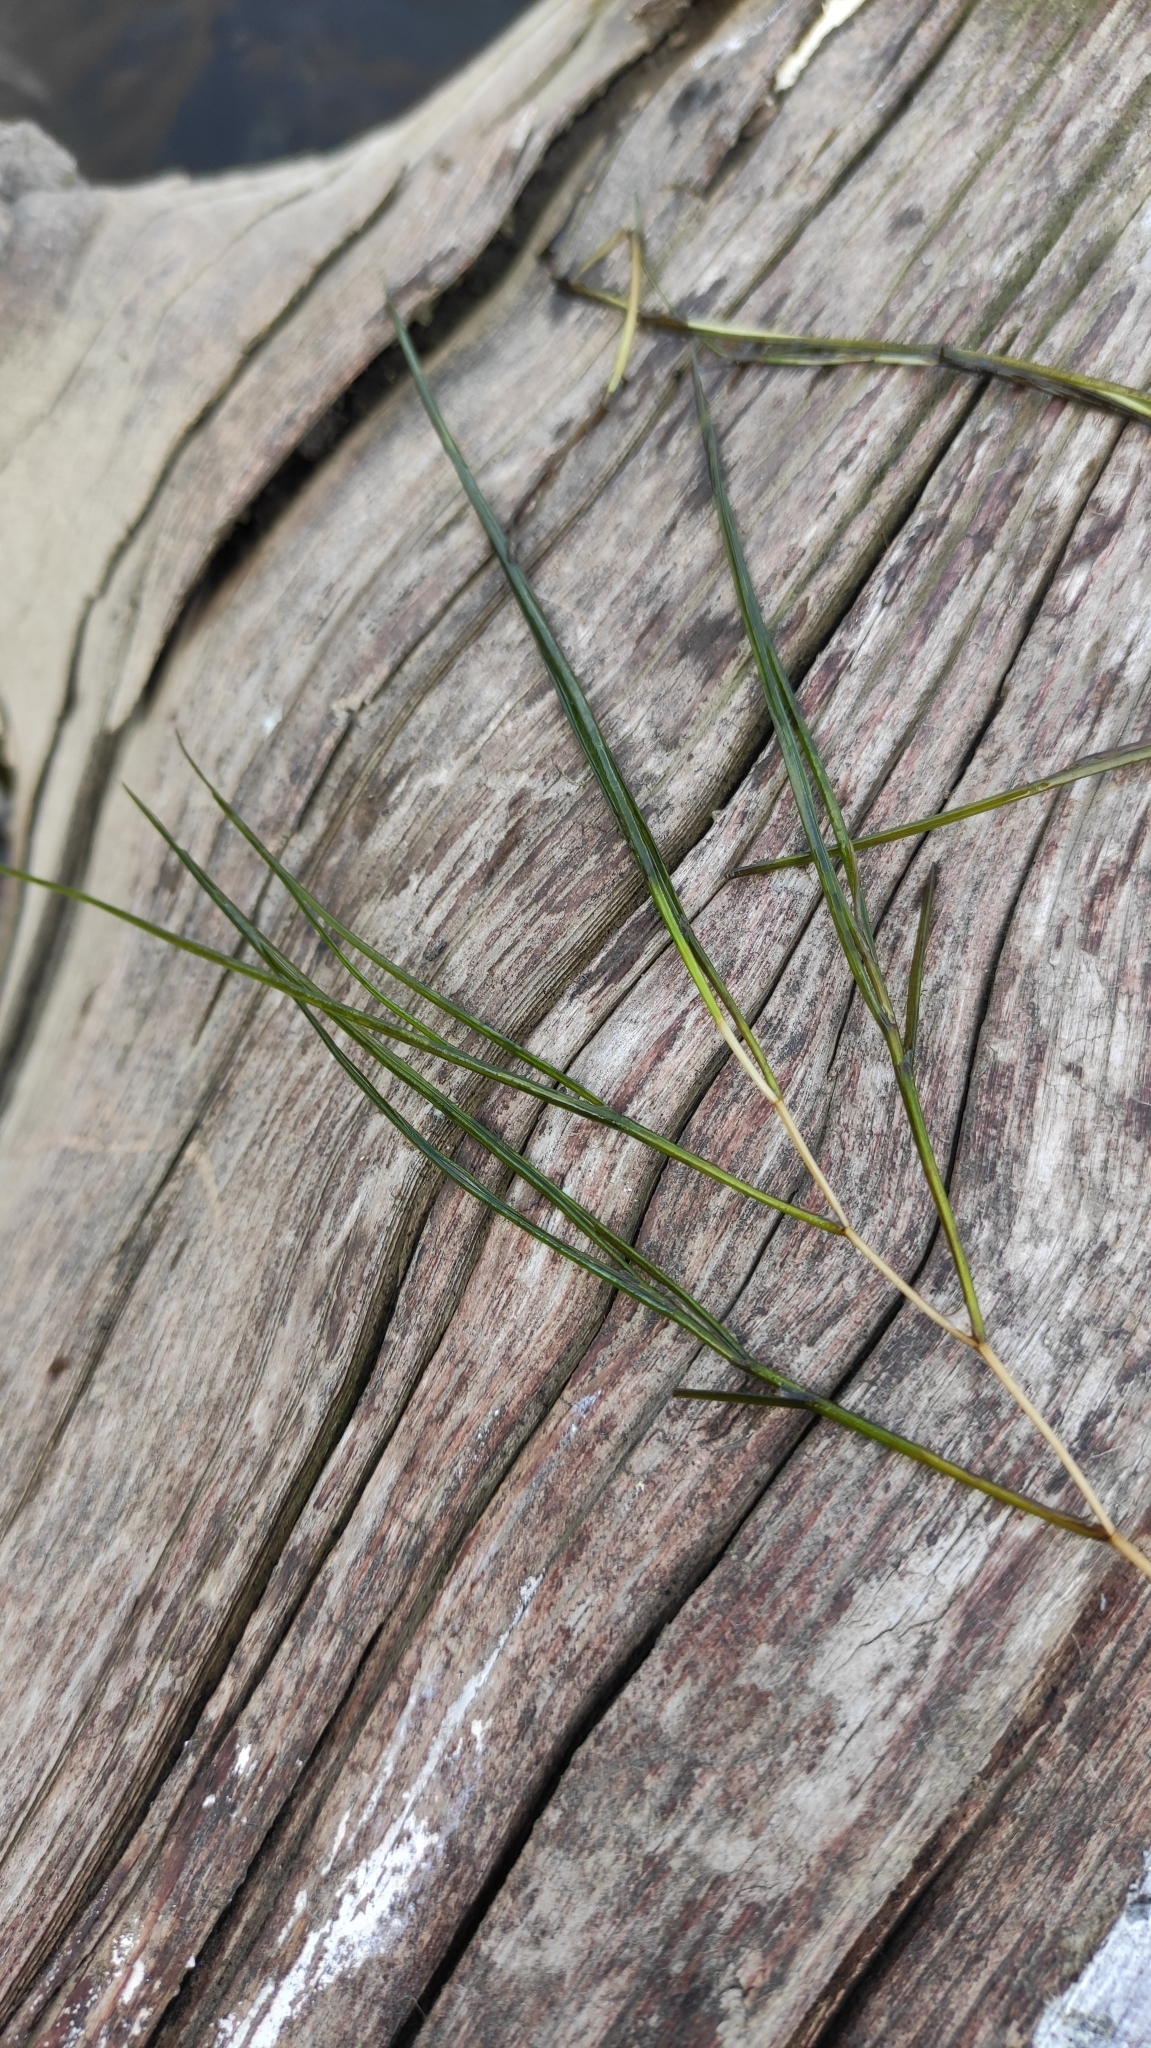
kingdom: Plantae
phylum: Tracheophyta
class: Liliopsida
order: Alismatales
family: Potamogetonaceae
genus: Stuckenia
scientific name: Stuckenia pectinata
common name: Sago pondweed
